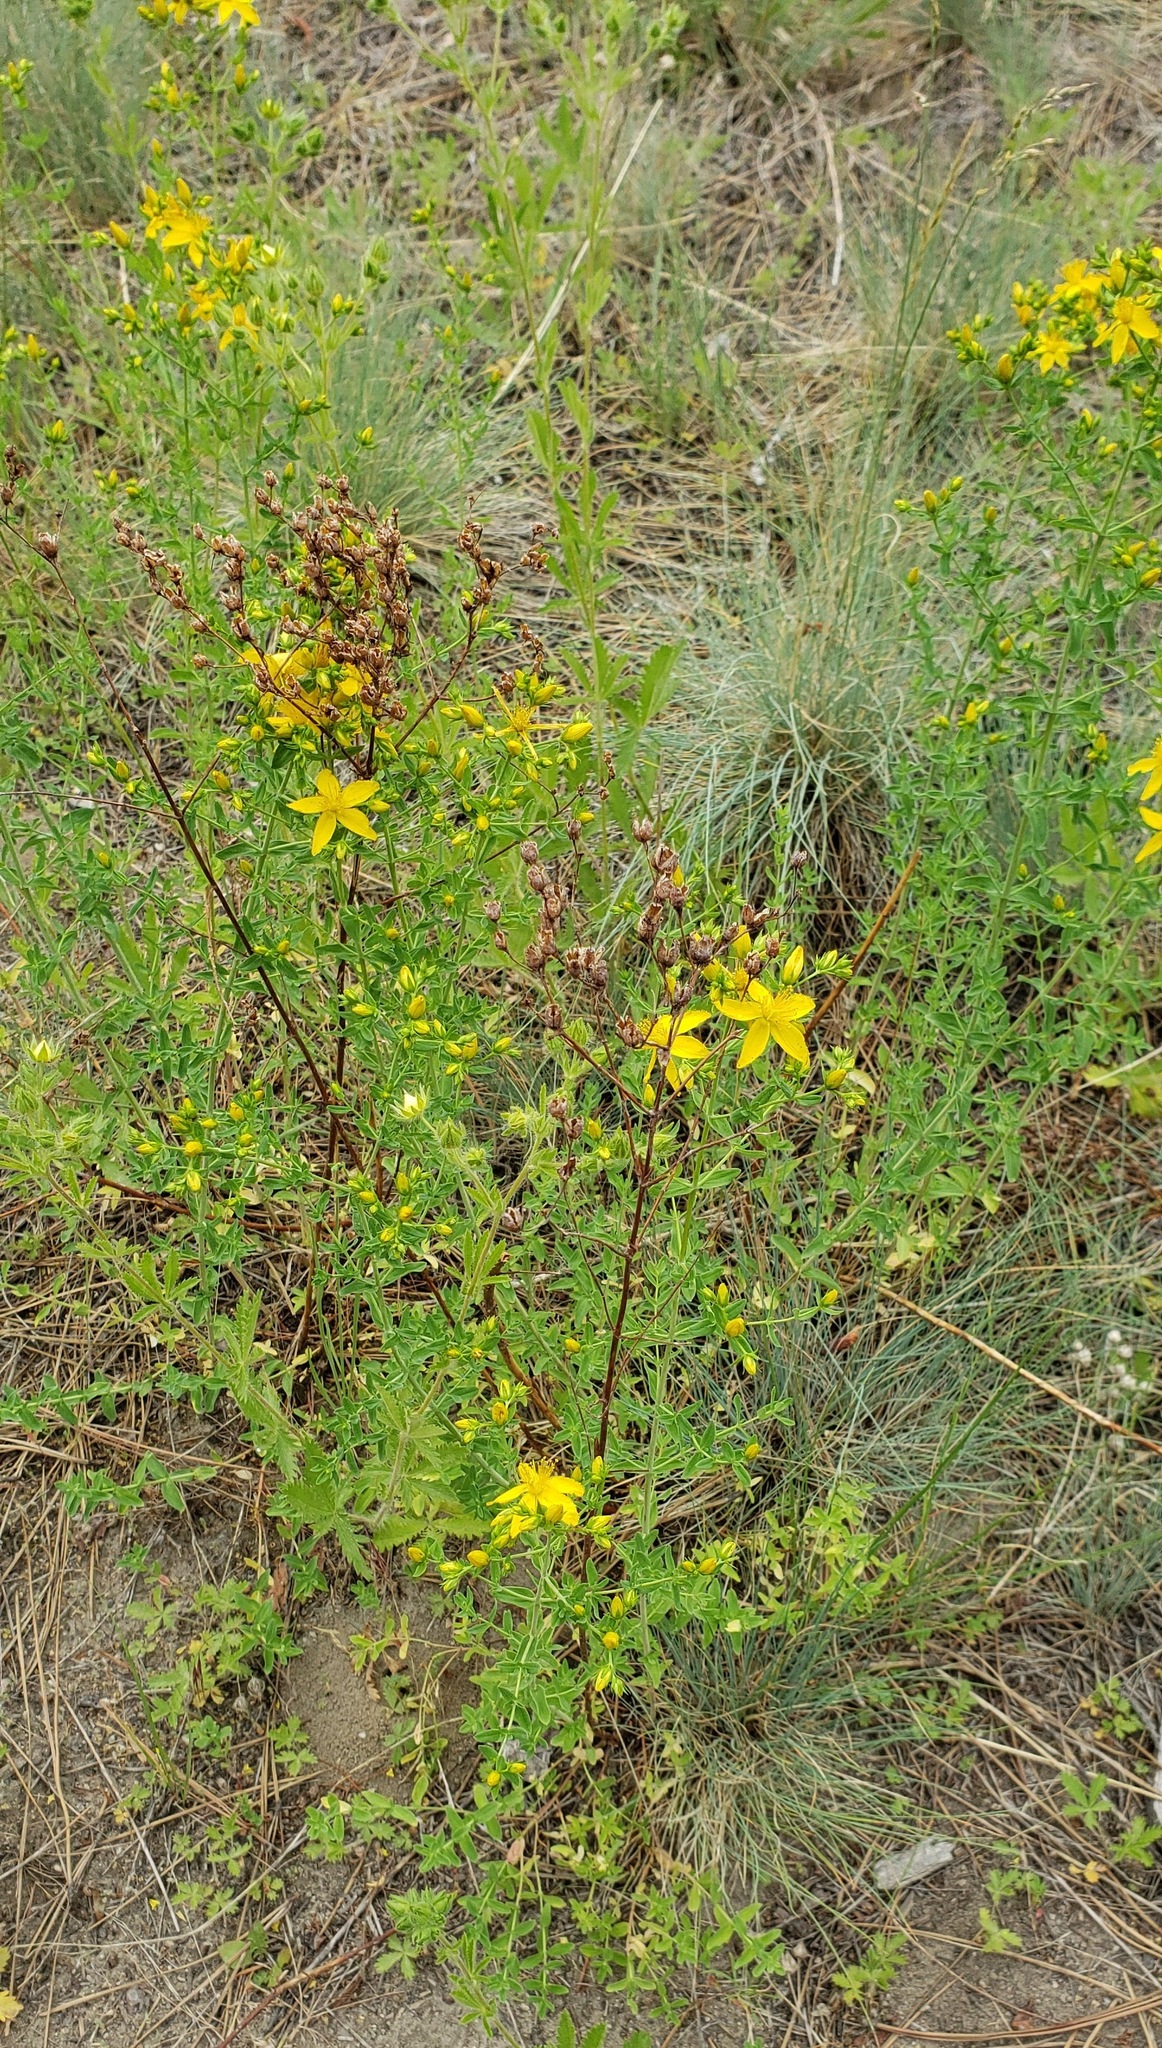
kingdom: Plantae
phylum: Tracheophyta
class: Magnoliopsida
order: Malpighiales
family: Hypericaceae
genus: Hypericum
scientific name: Hypericum perforatum
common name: Common st. johnswort
